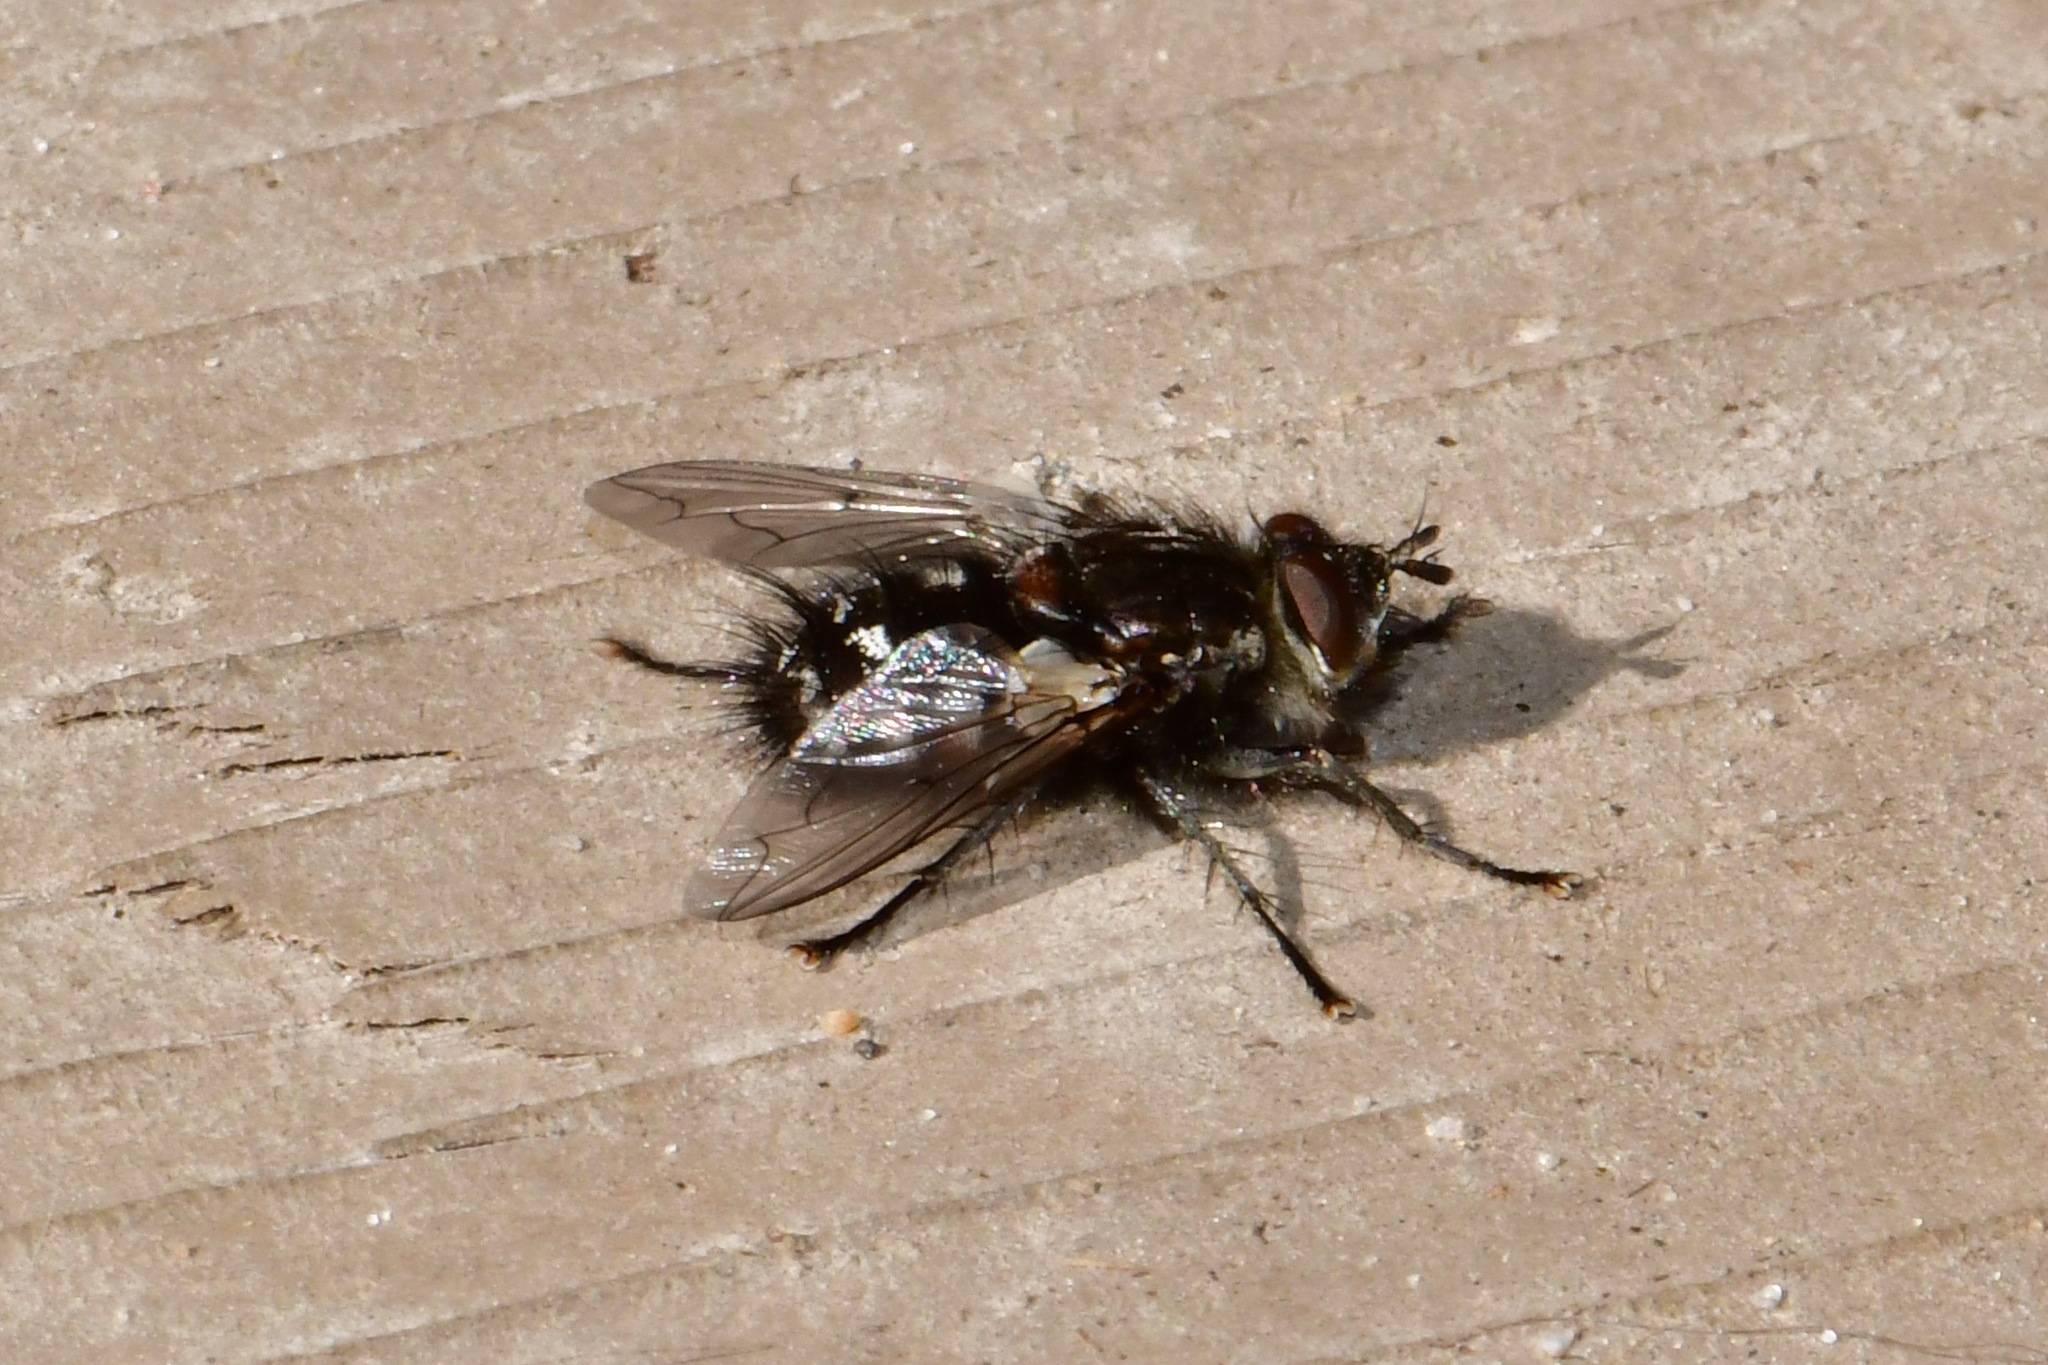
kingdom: Animalia
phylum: Arthropoda
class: Insecta
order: Diptera
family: Tachinidae
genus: Panzeria
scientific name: Panzeria puparum
